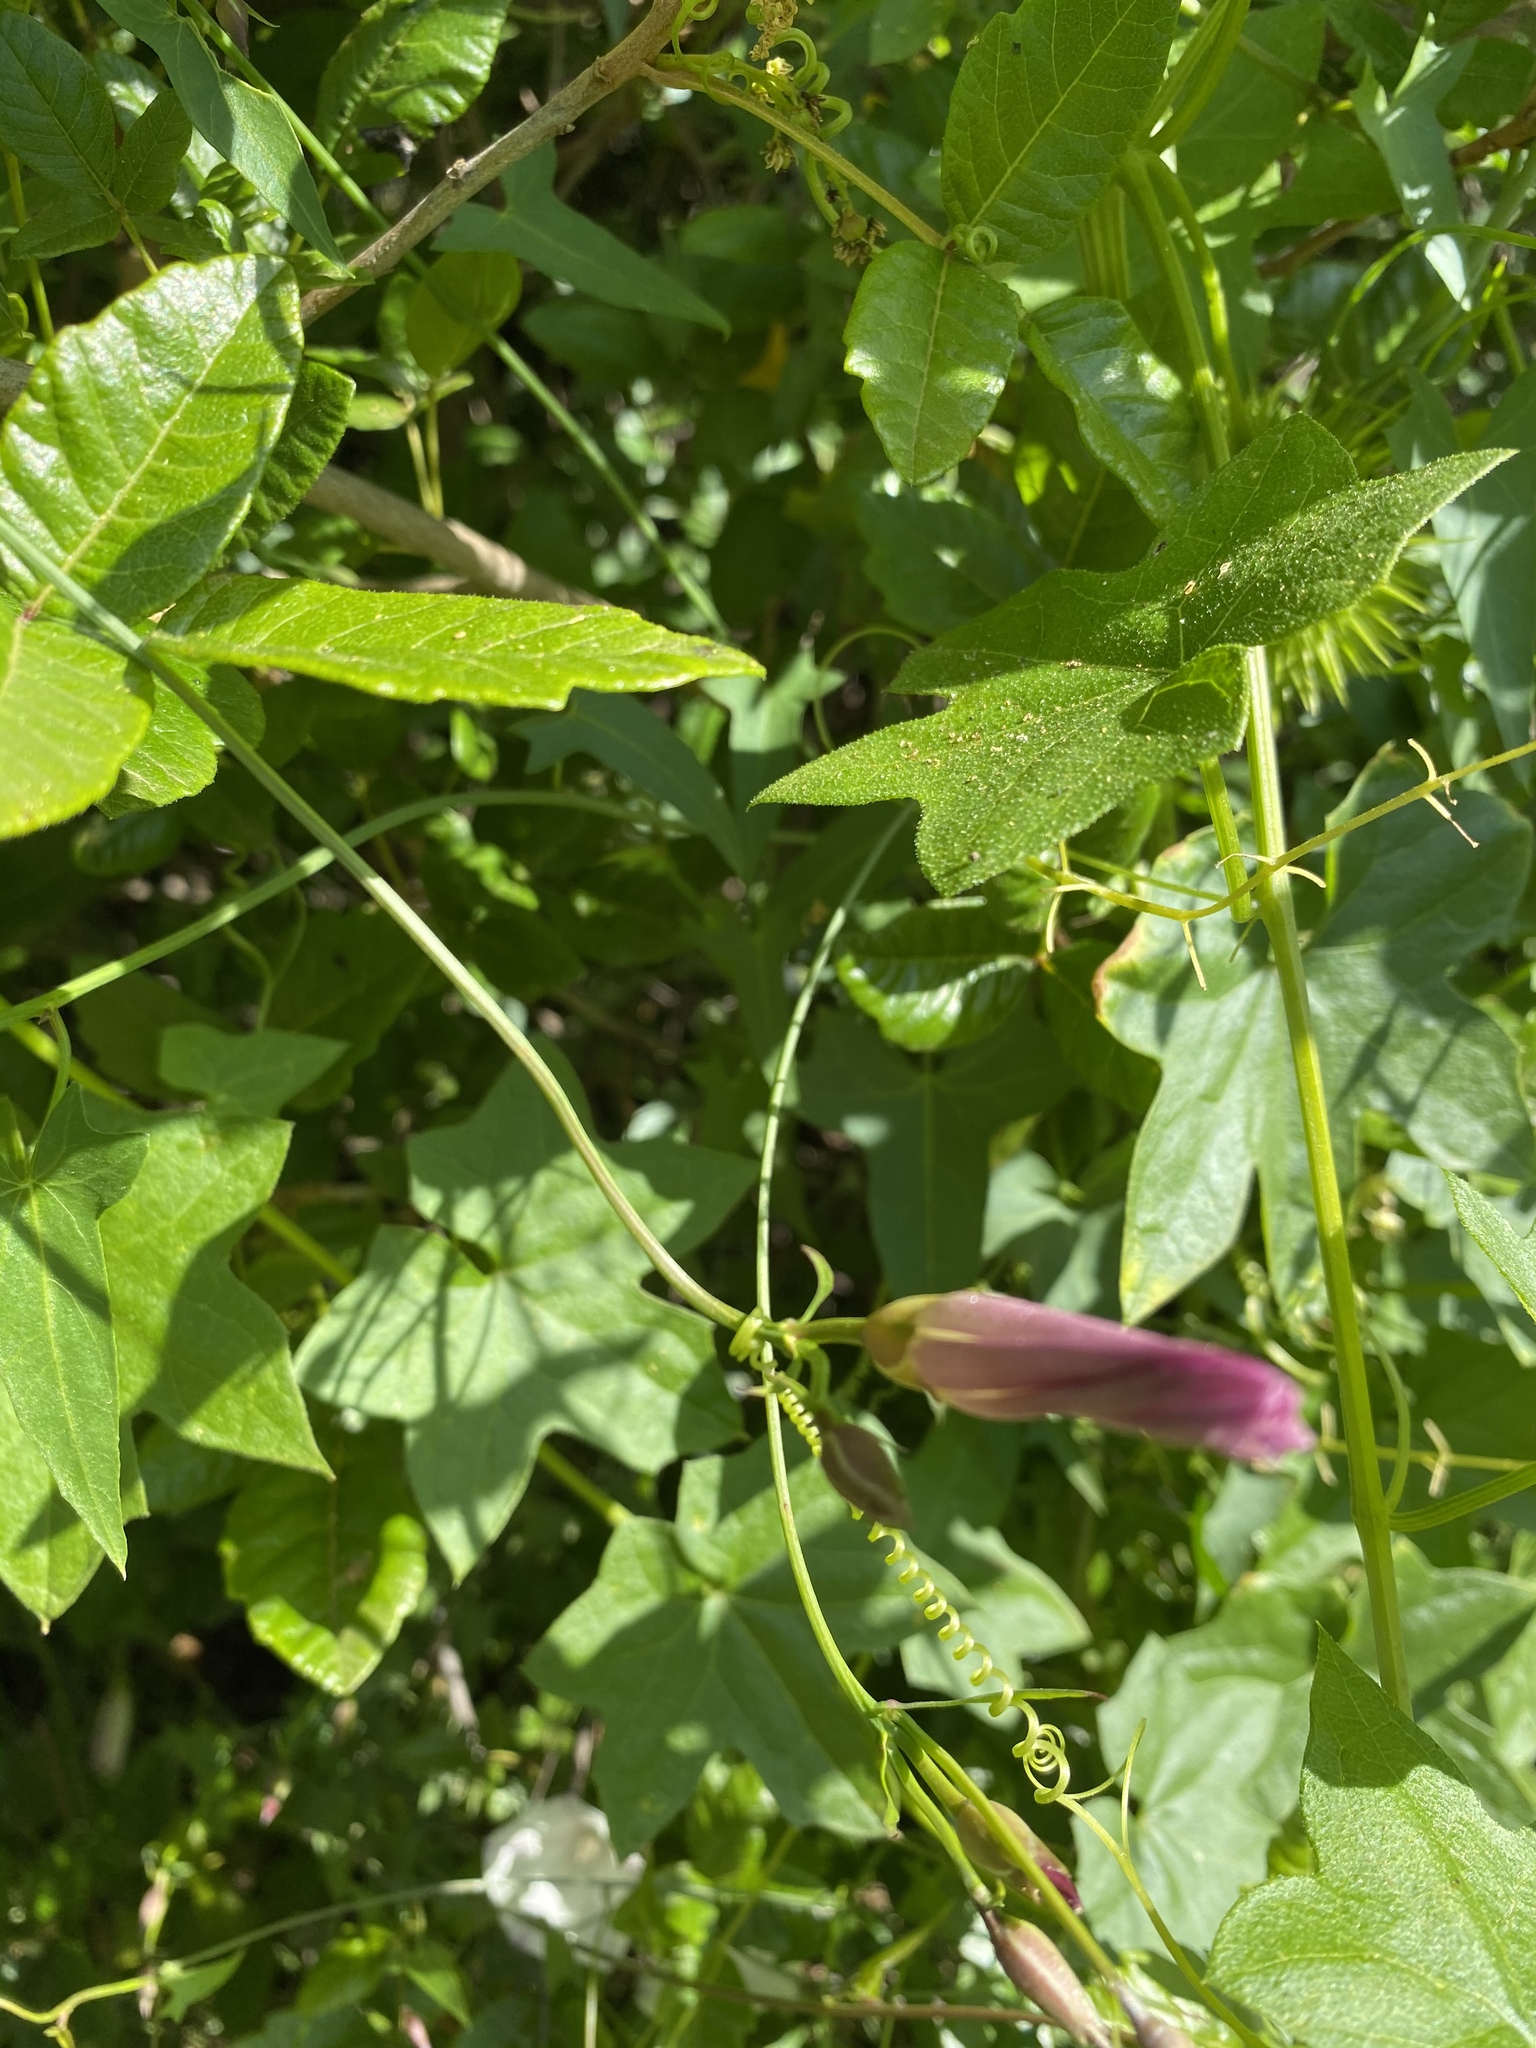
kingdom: Plantae
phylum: Tracheophyta
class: Magnoliopsida
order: Solanales
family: Convolvulaceae
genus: Calystegia
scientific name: Calystegia purpurata
